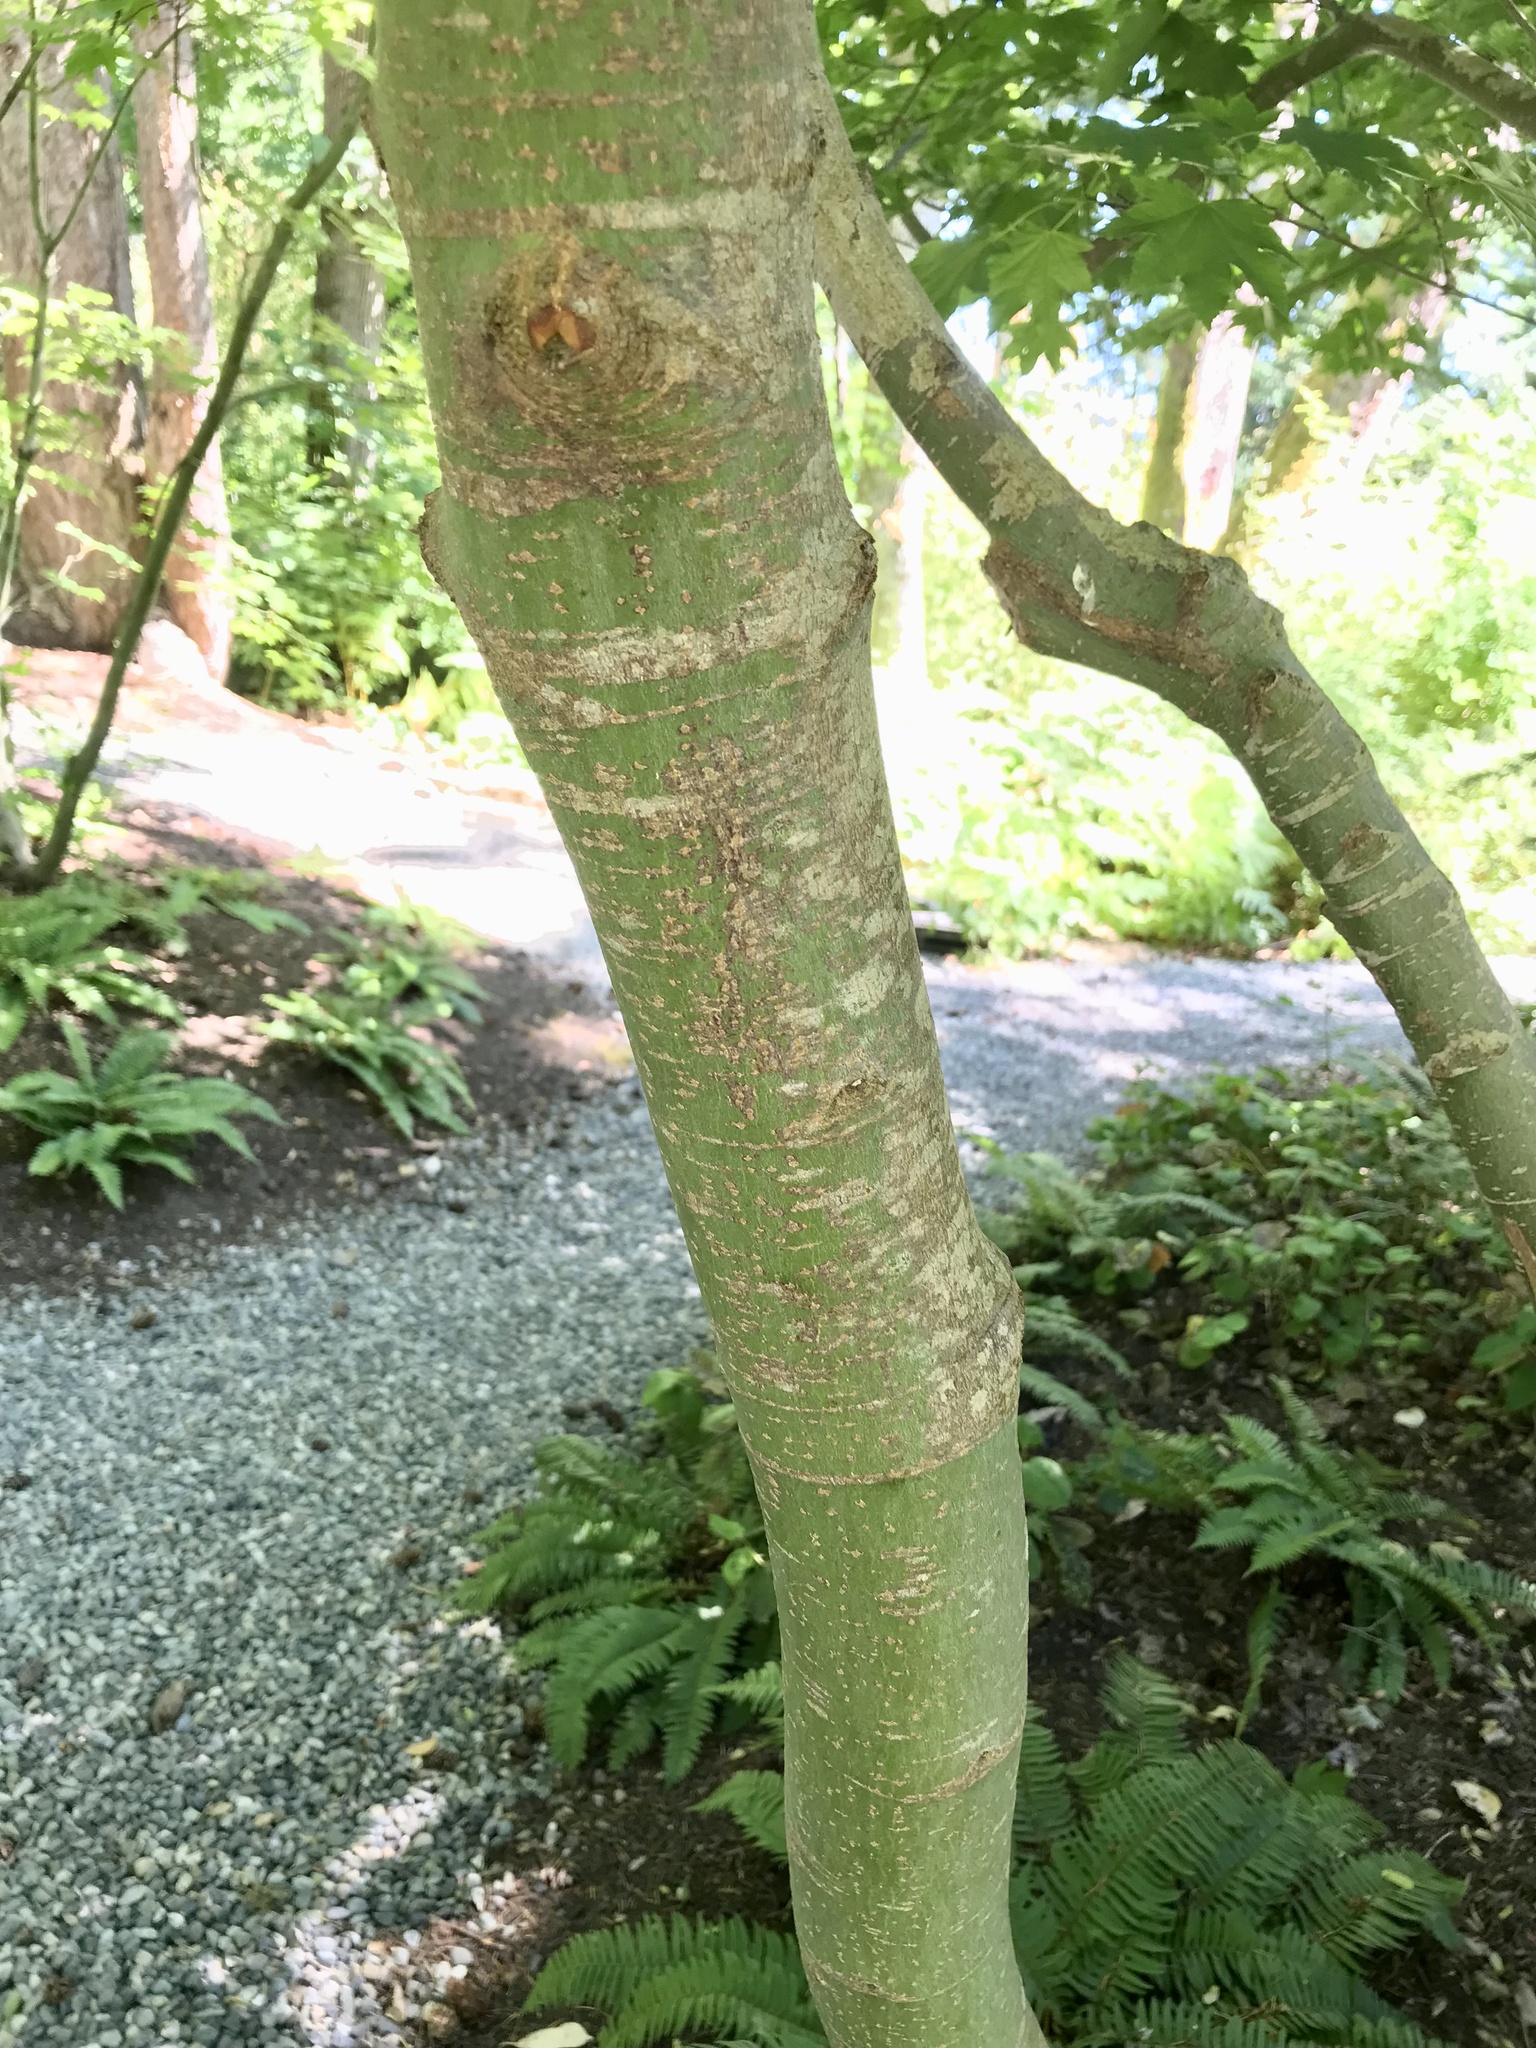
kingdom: Plantae
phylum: Tracheophyta
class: Magnoliopsida
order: Sapindales
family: Sapindaceae
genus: Acer
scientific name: Acer circinatum
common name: Vine maple
